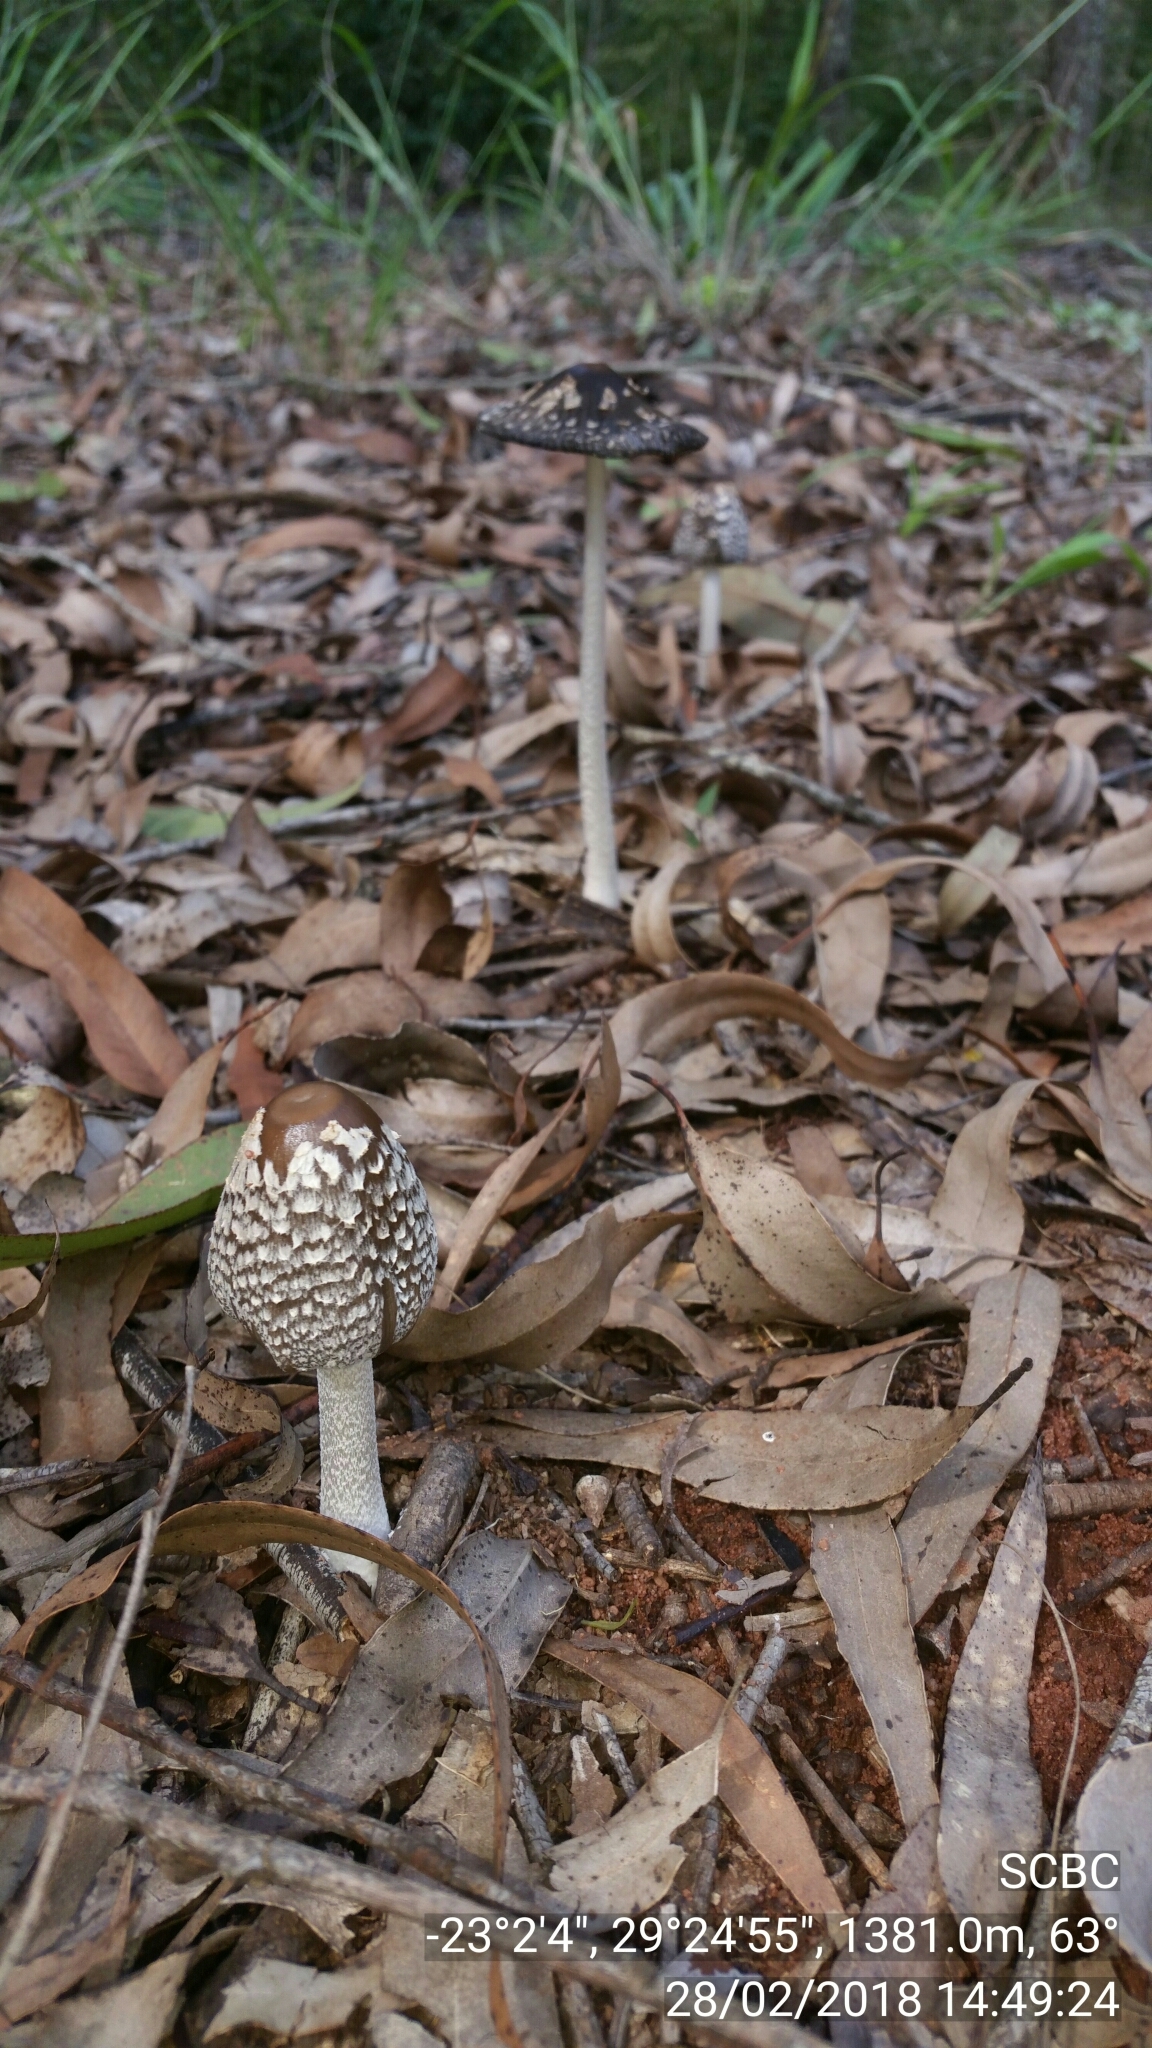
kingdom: Fungi
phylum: Basidiomycota
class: Agaricomycetes
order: Agaricales
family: Psathyrellaceae
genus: Coprinopsis
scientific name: Coprinopsis picacea
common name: Magpie inkcap
